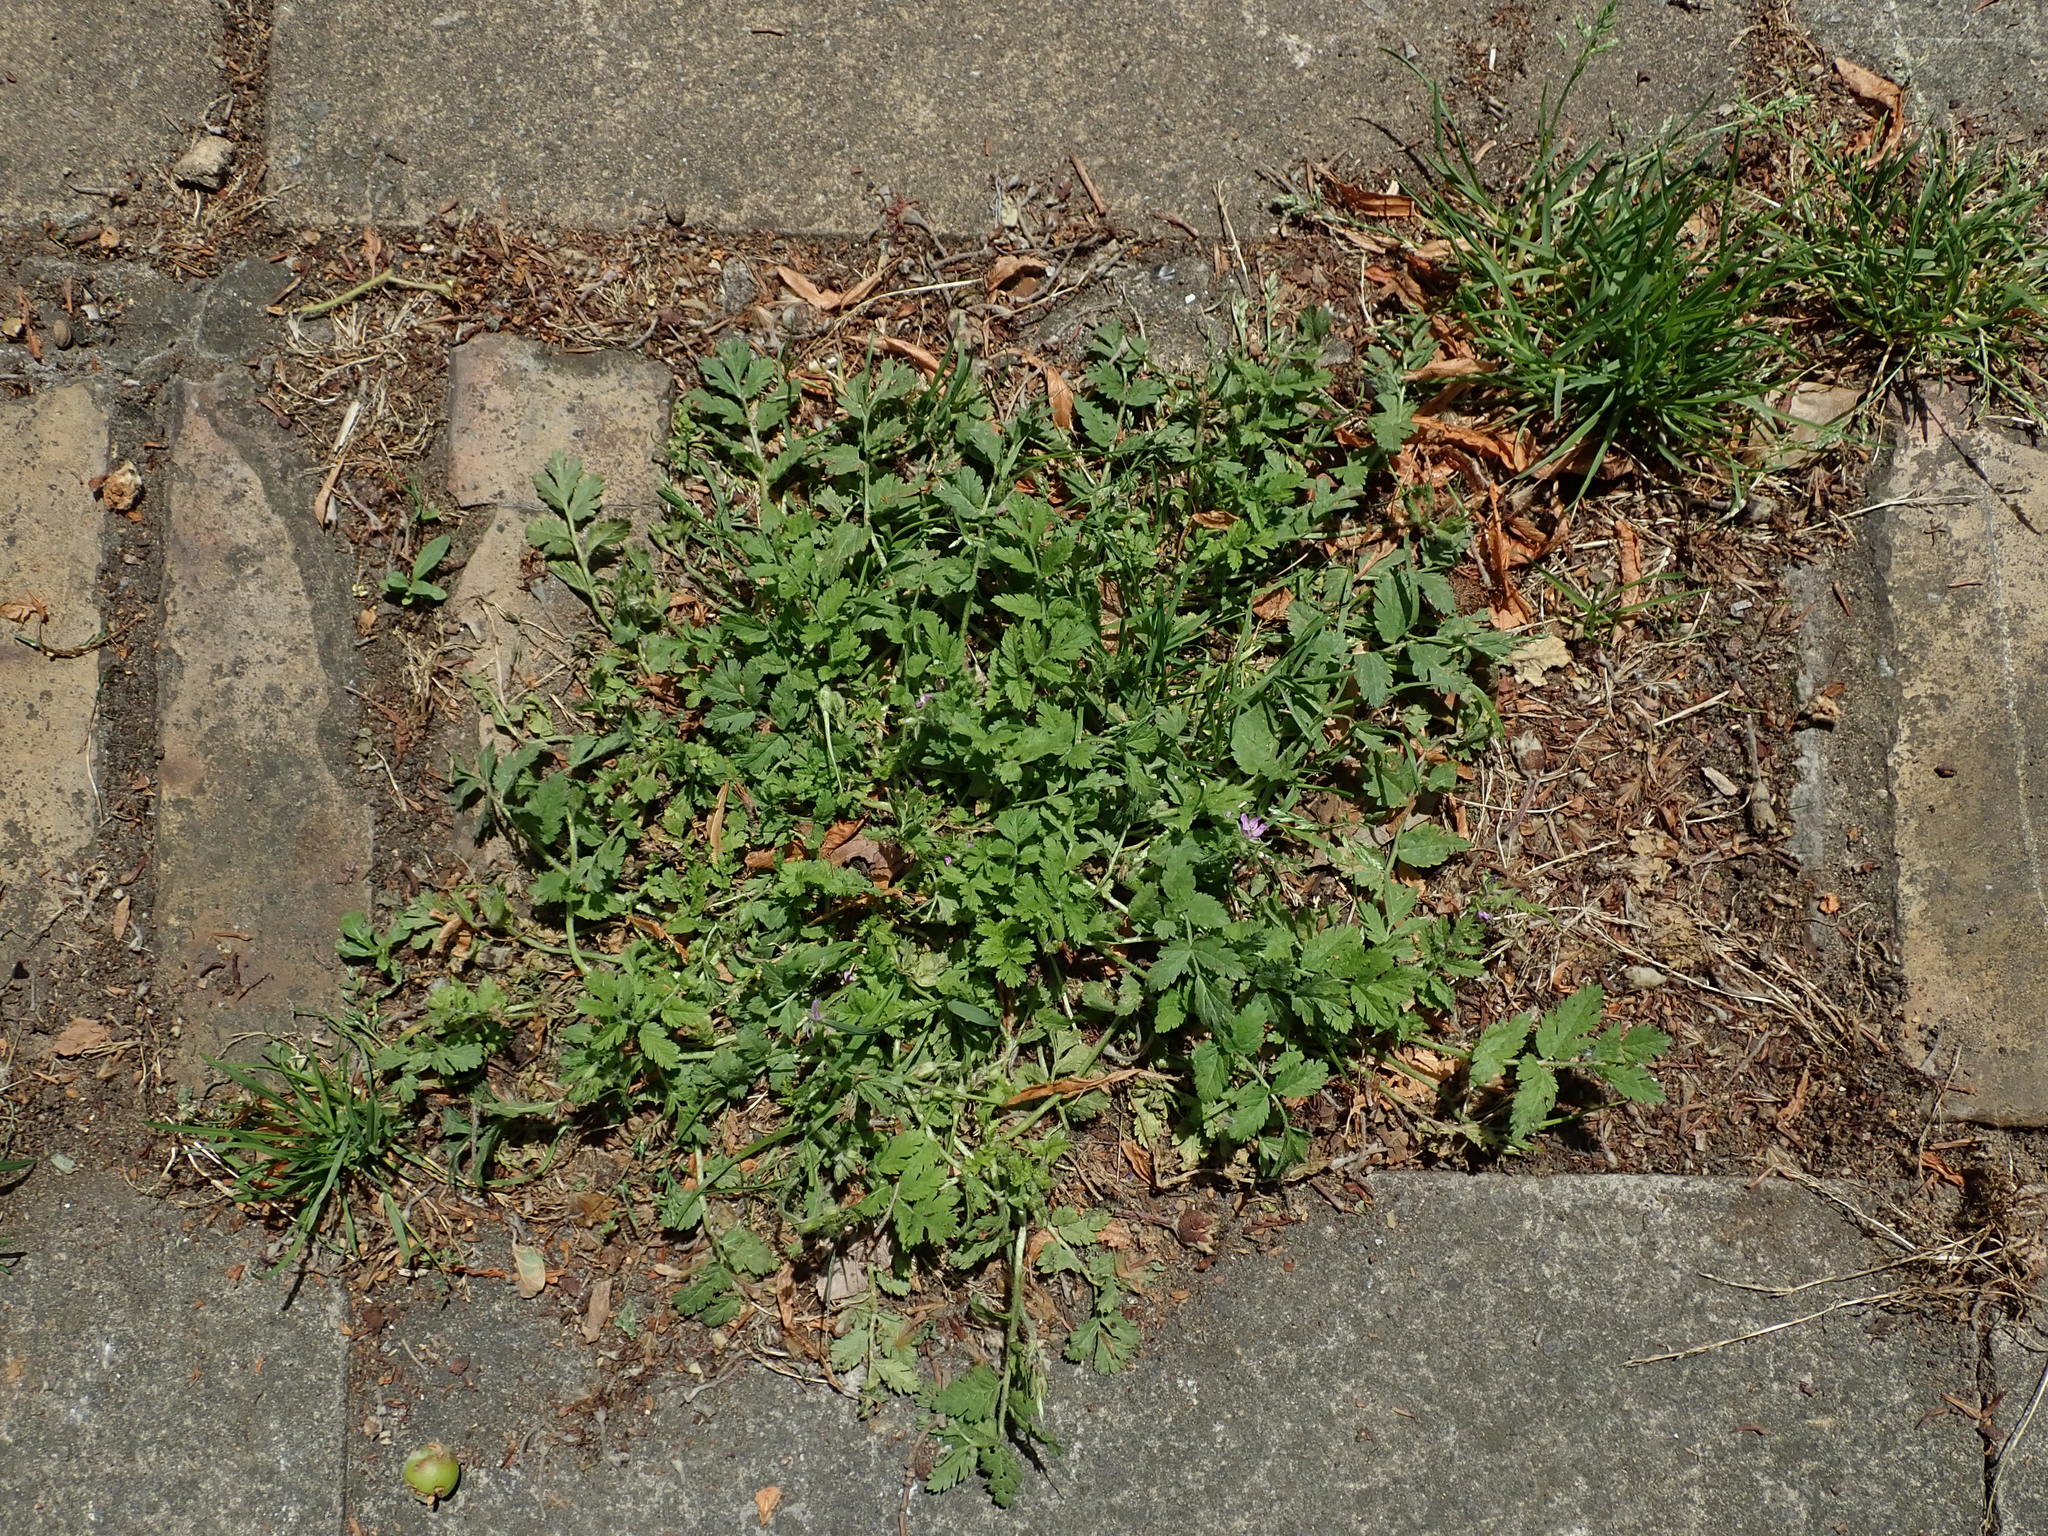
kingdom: Plantae
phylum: Tracheophyta
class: Magnoliopsida
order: Geraniales
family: Geraniaceae
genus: Erodium
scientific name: Erodium moschatum
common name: Musk stork's-bill
